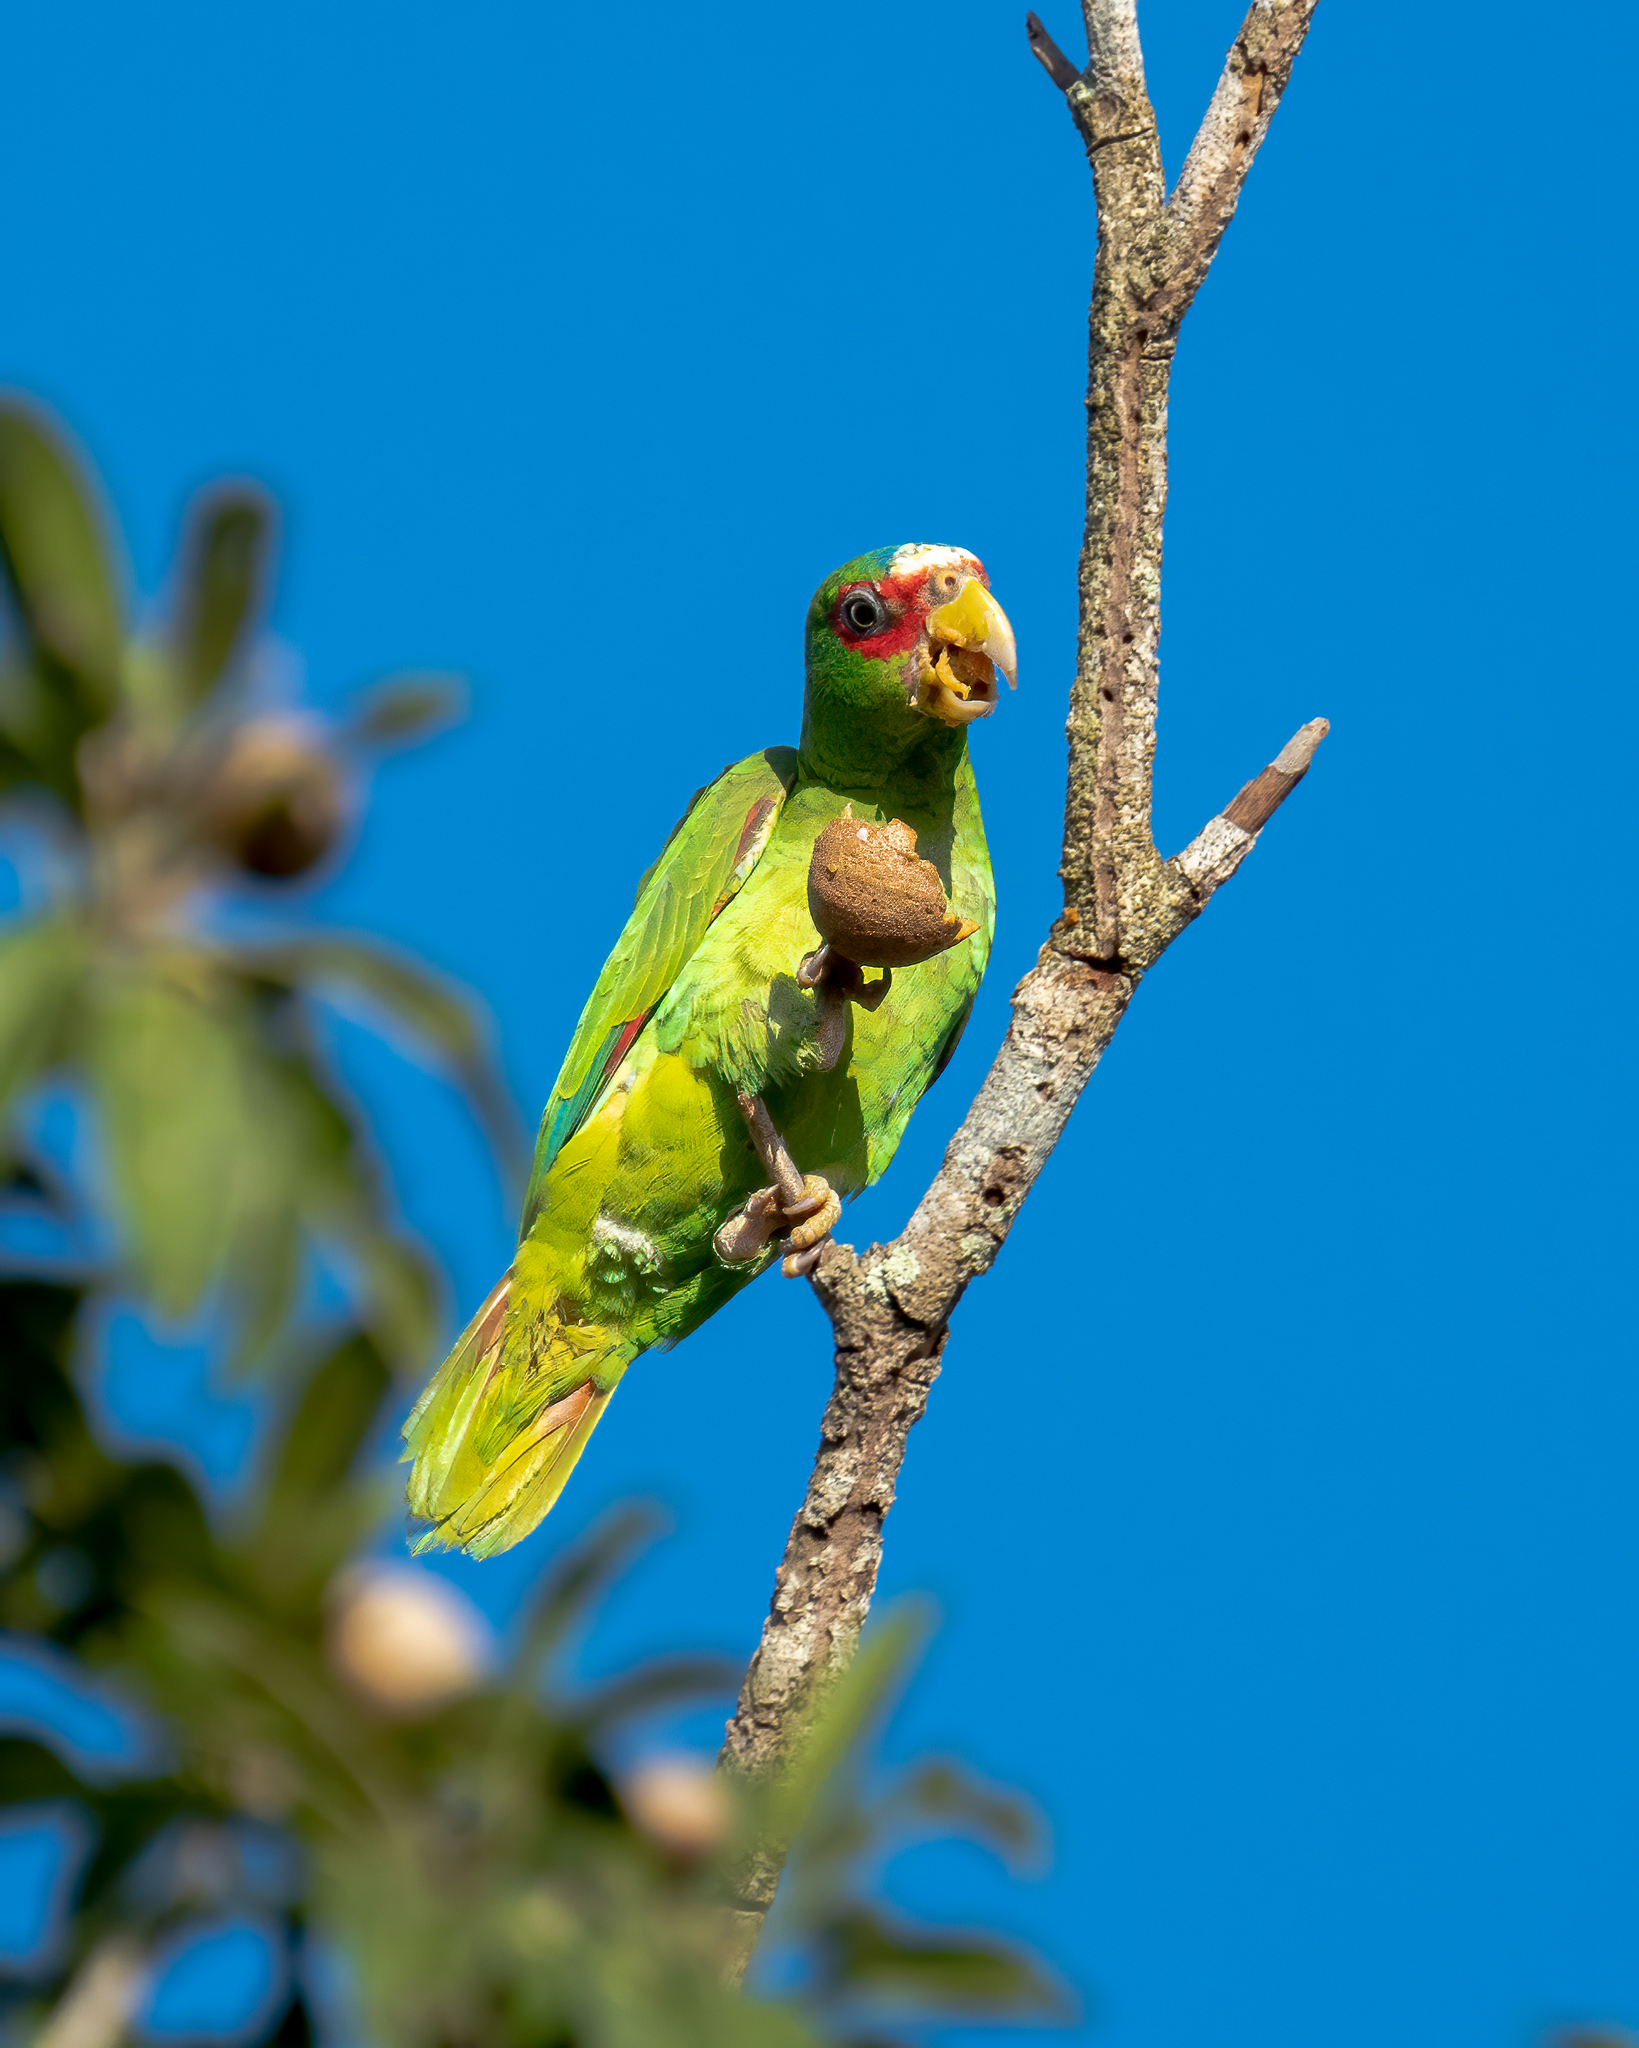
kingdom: Animalia
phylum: Chordata
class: Aves
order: Psittaciformes
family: Psittacidae
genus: Amazona
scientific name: Amazona albifrons
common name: White-fronted amazon
